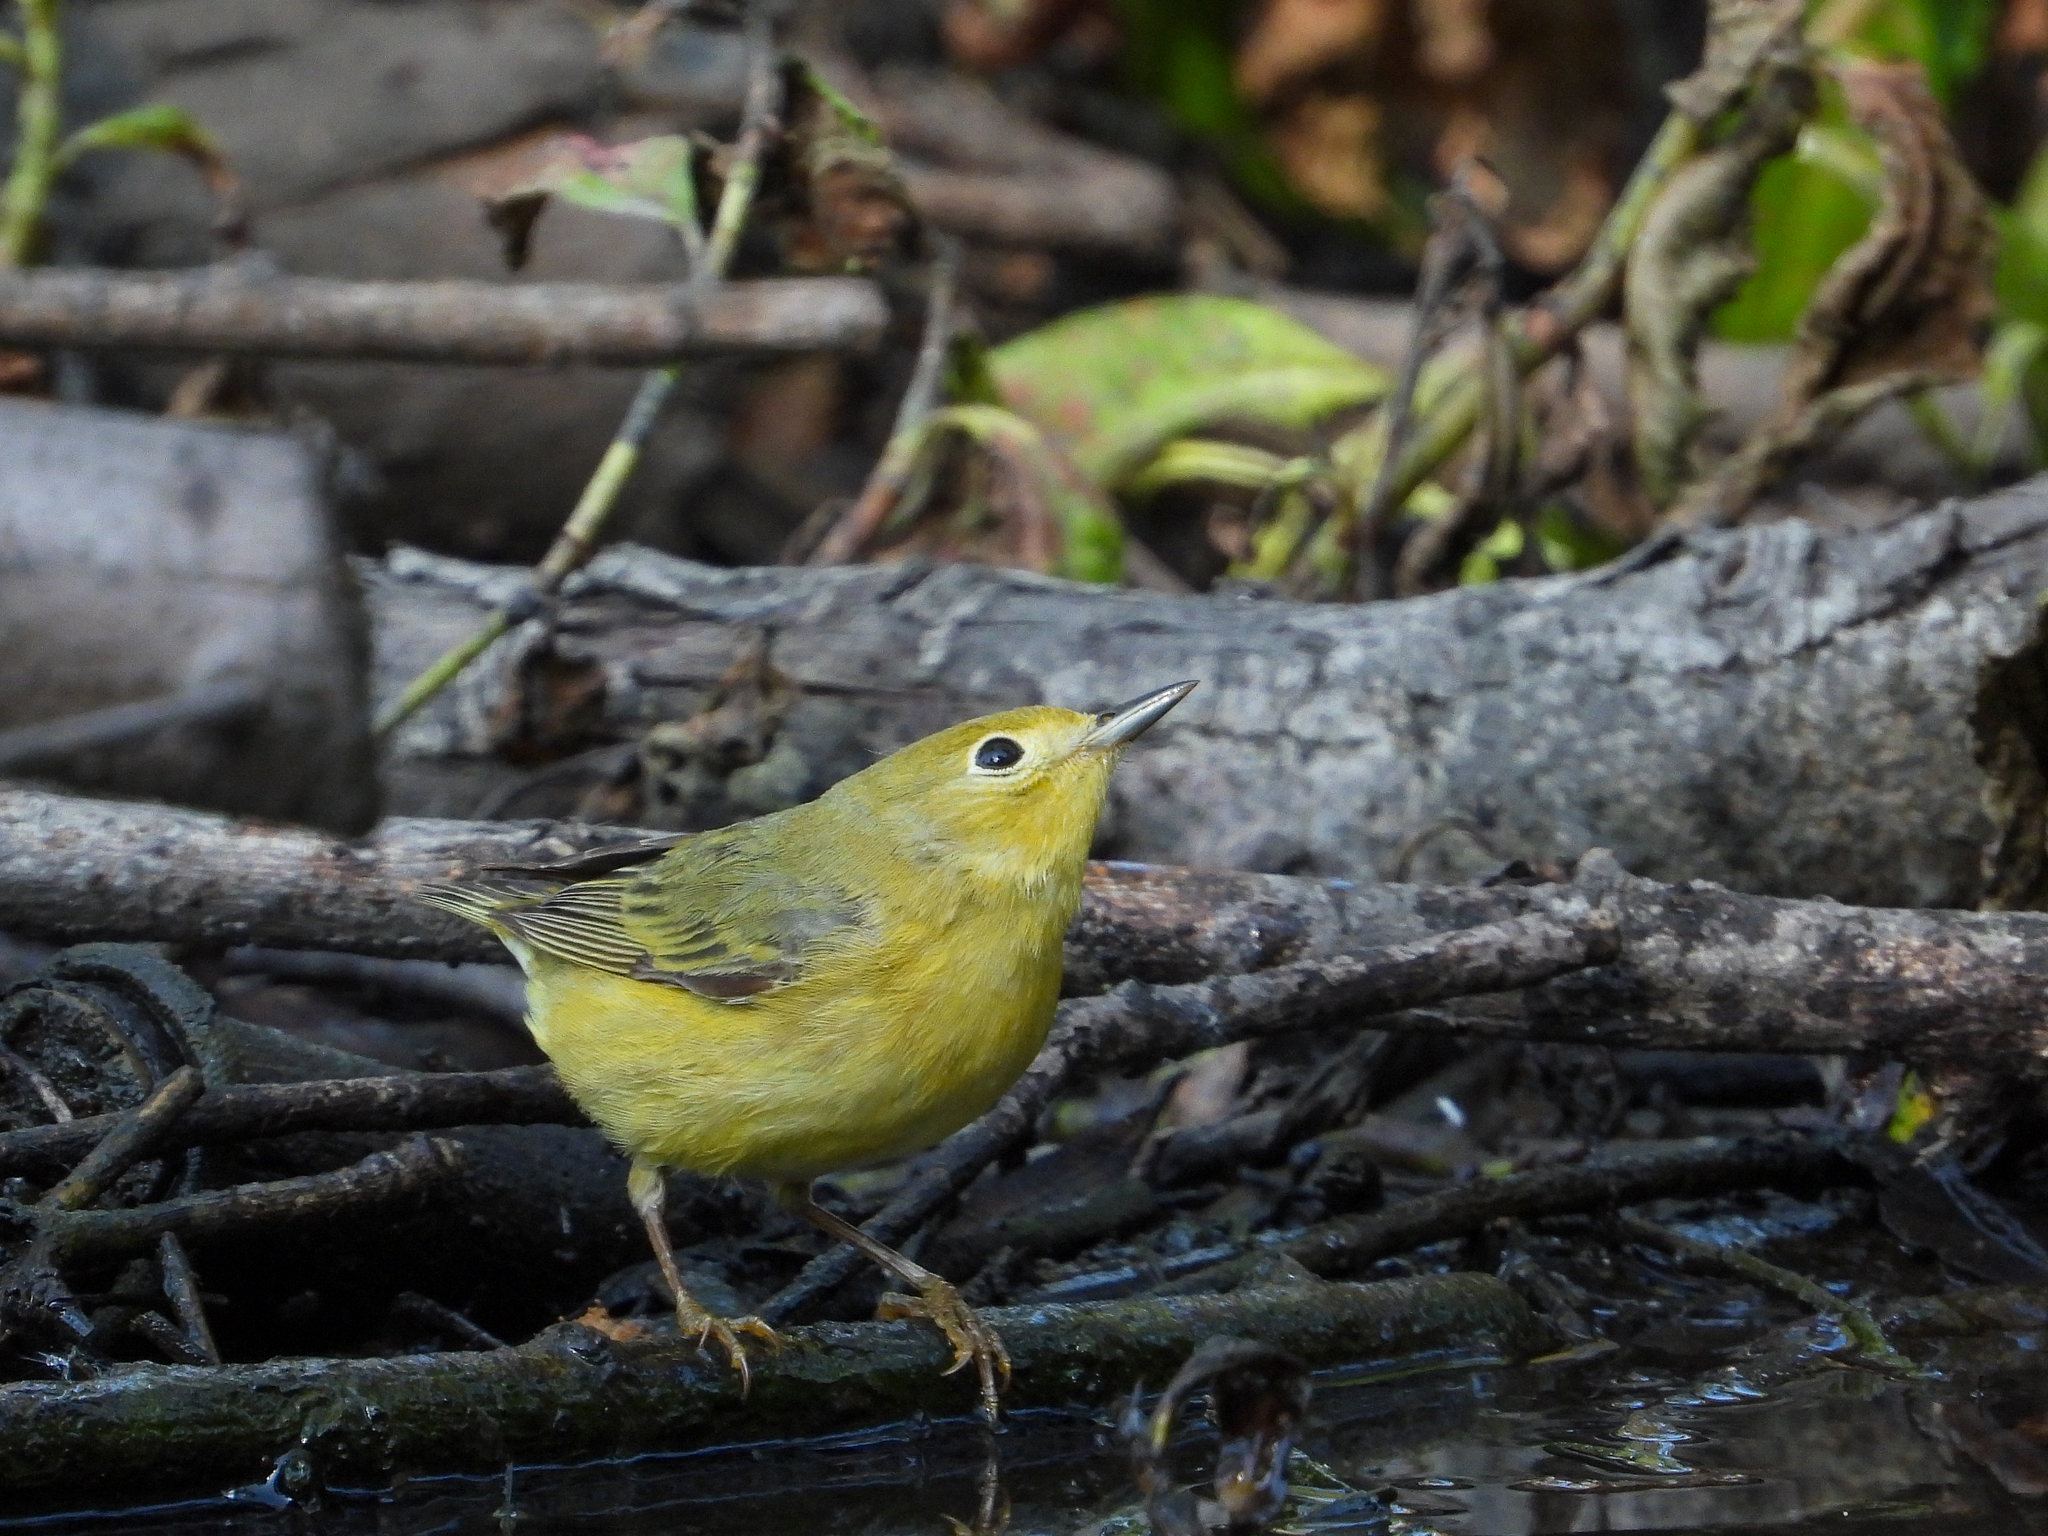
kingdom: Animalia
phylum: Chordata
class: Aves
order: Passeriformes
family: Parulidae
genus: Setophaga
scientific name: Setophaga petechia
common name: Yellow warbler
